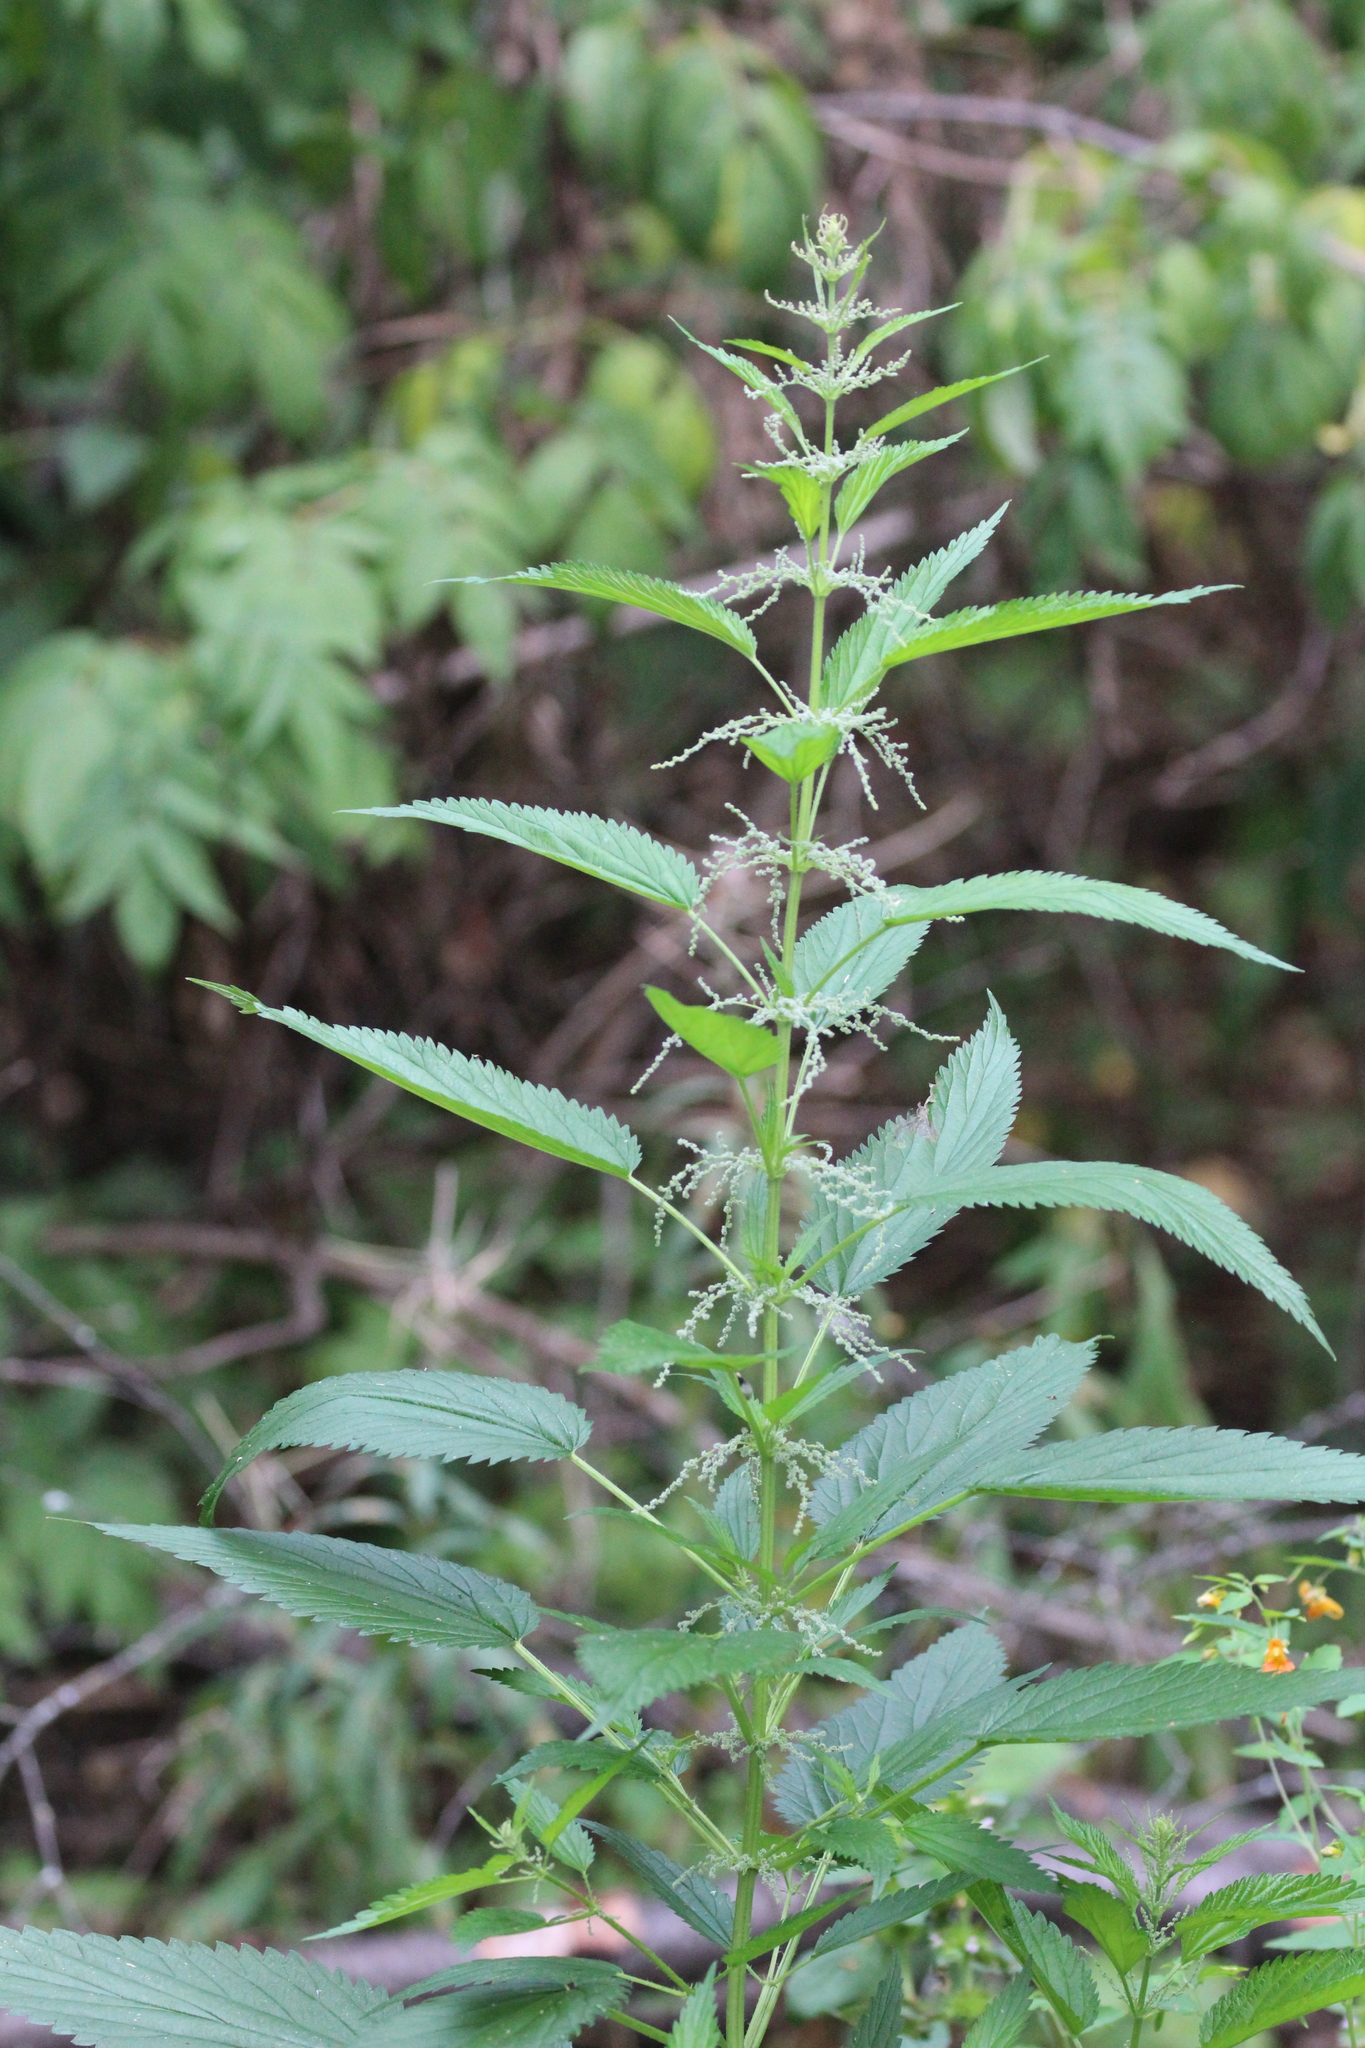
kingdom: Plantae
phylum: Tracheophyta
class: Magnoliopsida
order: Rosales
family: Urticaceae
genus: Urtica
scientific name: Urtica dioica
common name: Common nettle
